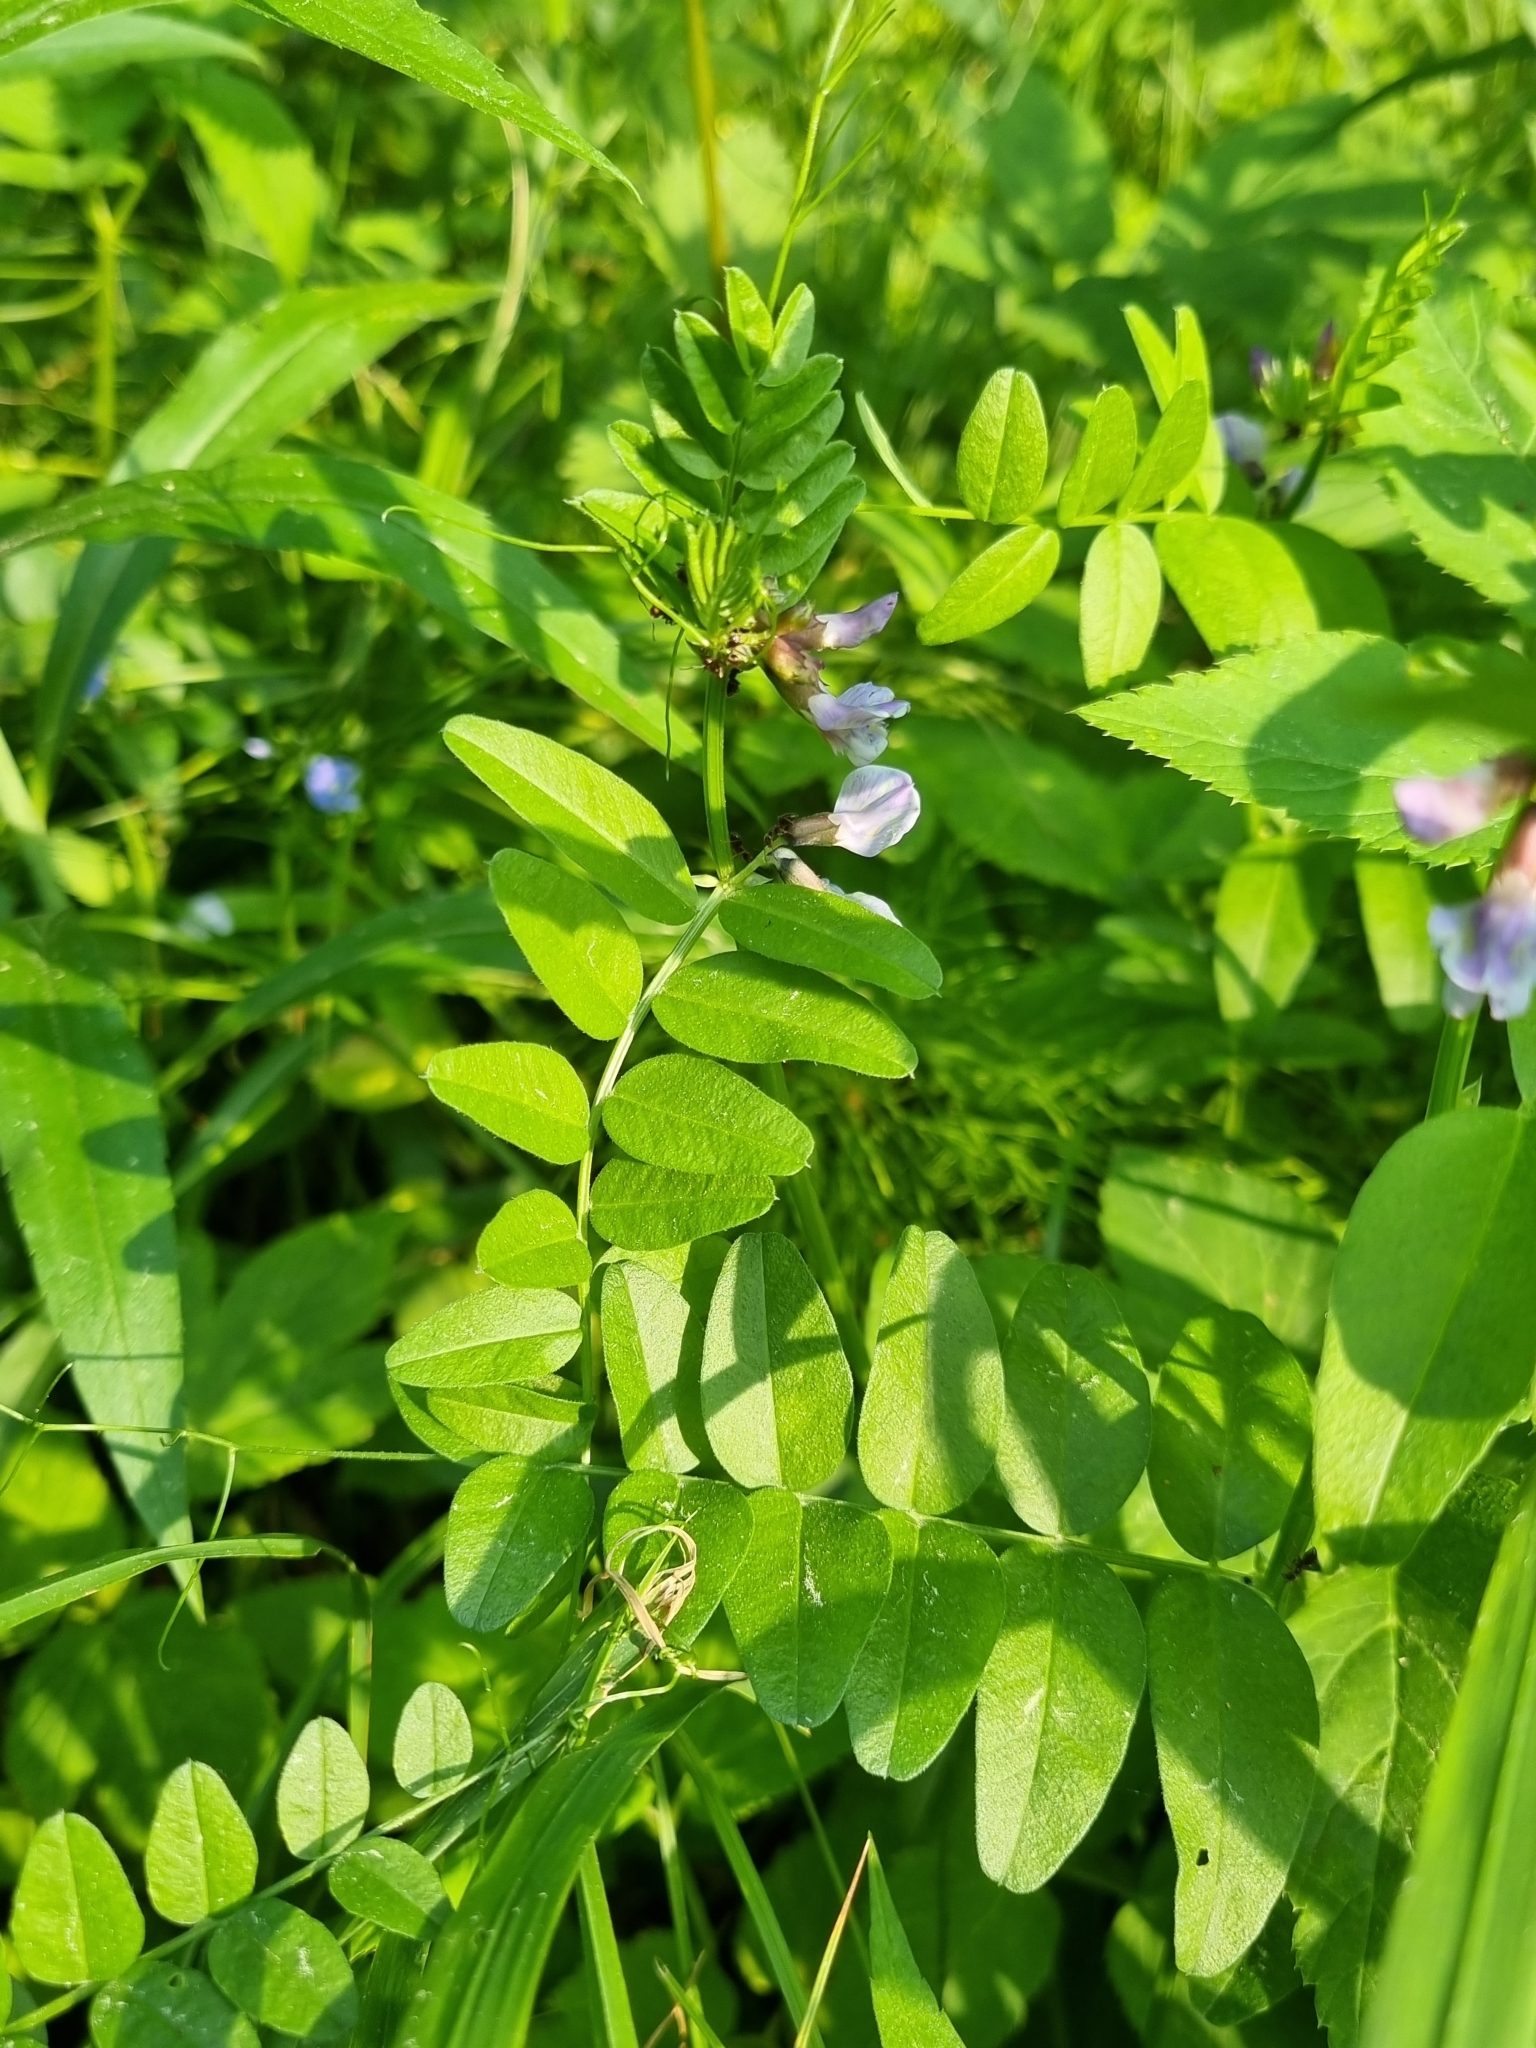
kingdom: Plantae
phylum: Tracheophyta
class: Magnoliopsida
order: Fabales
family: Fabaceae
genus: Vicia
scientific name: Vicia sepium
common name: Bush vetch
